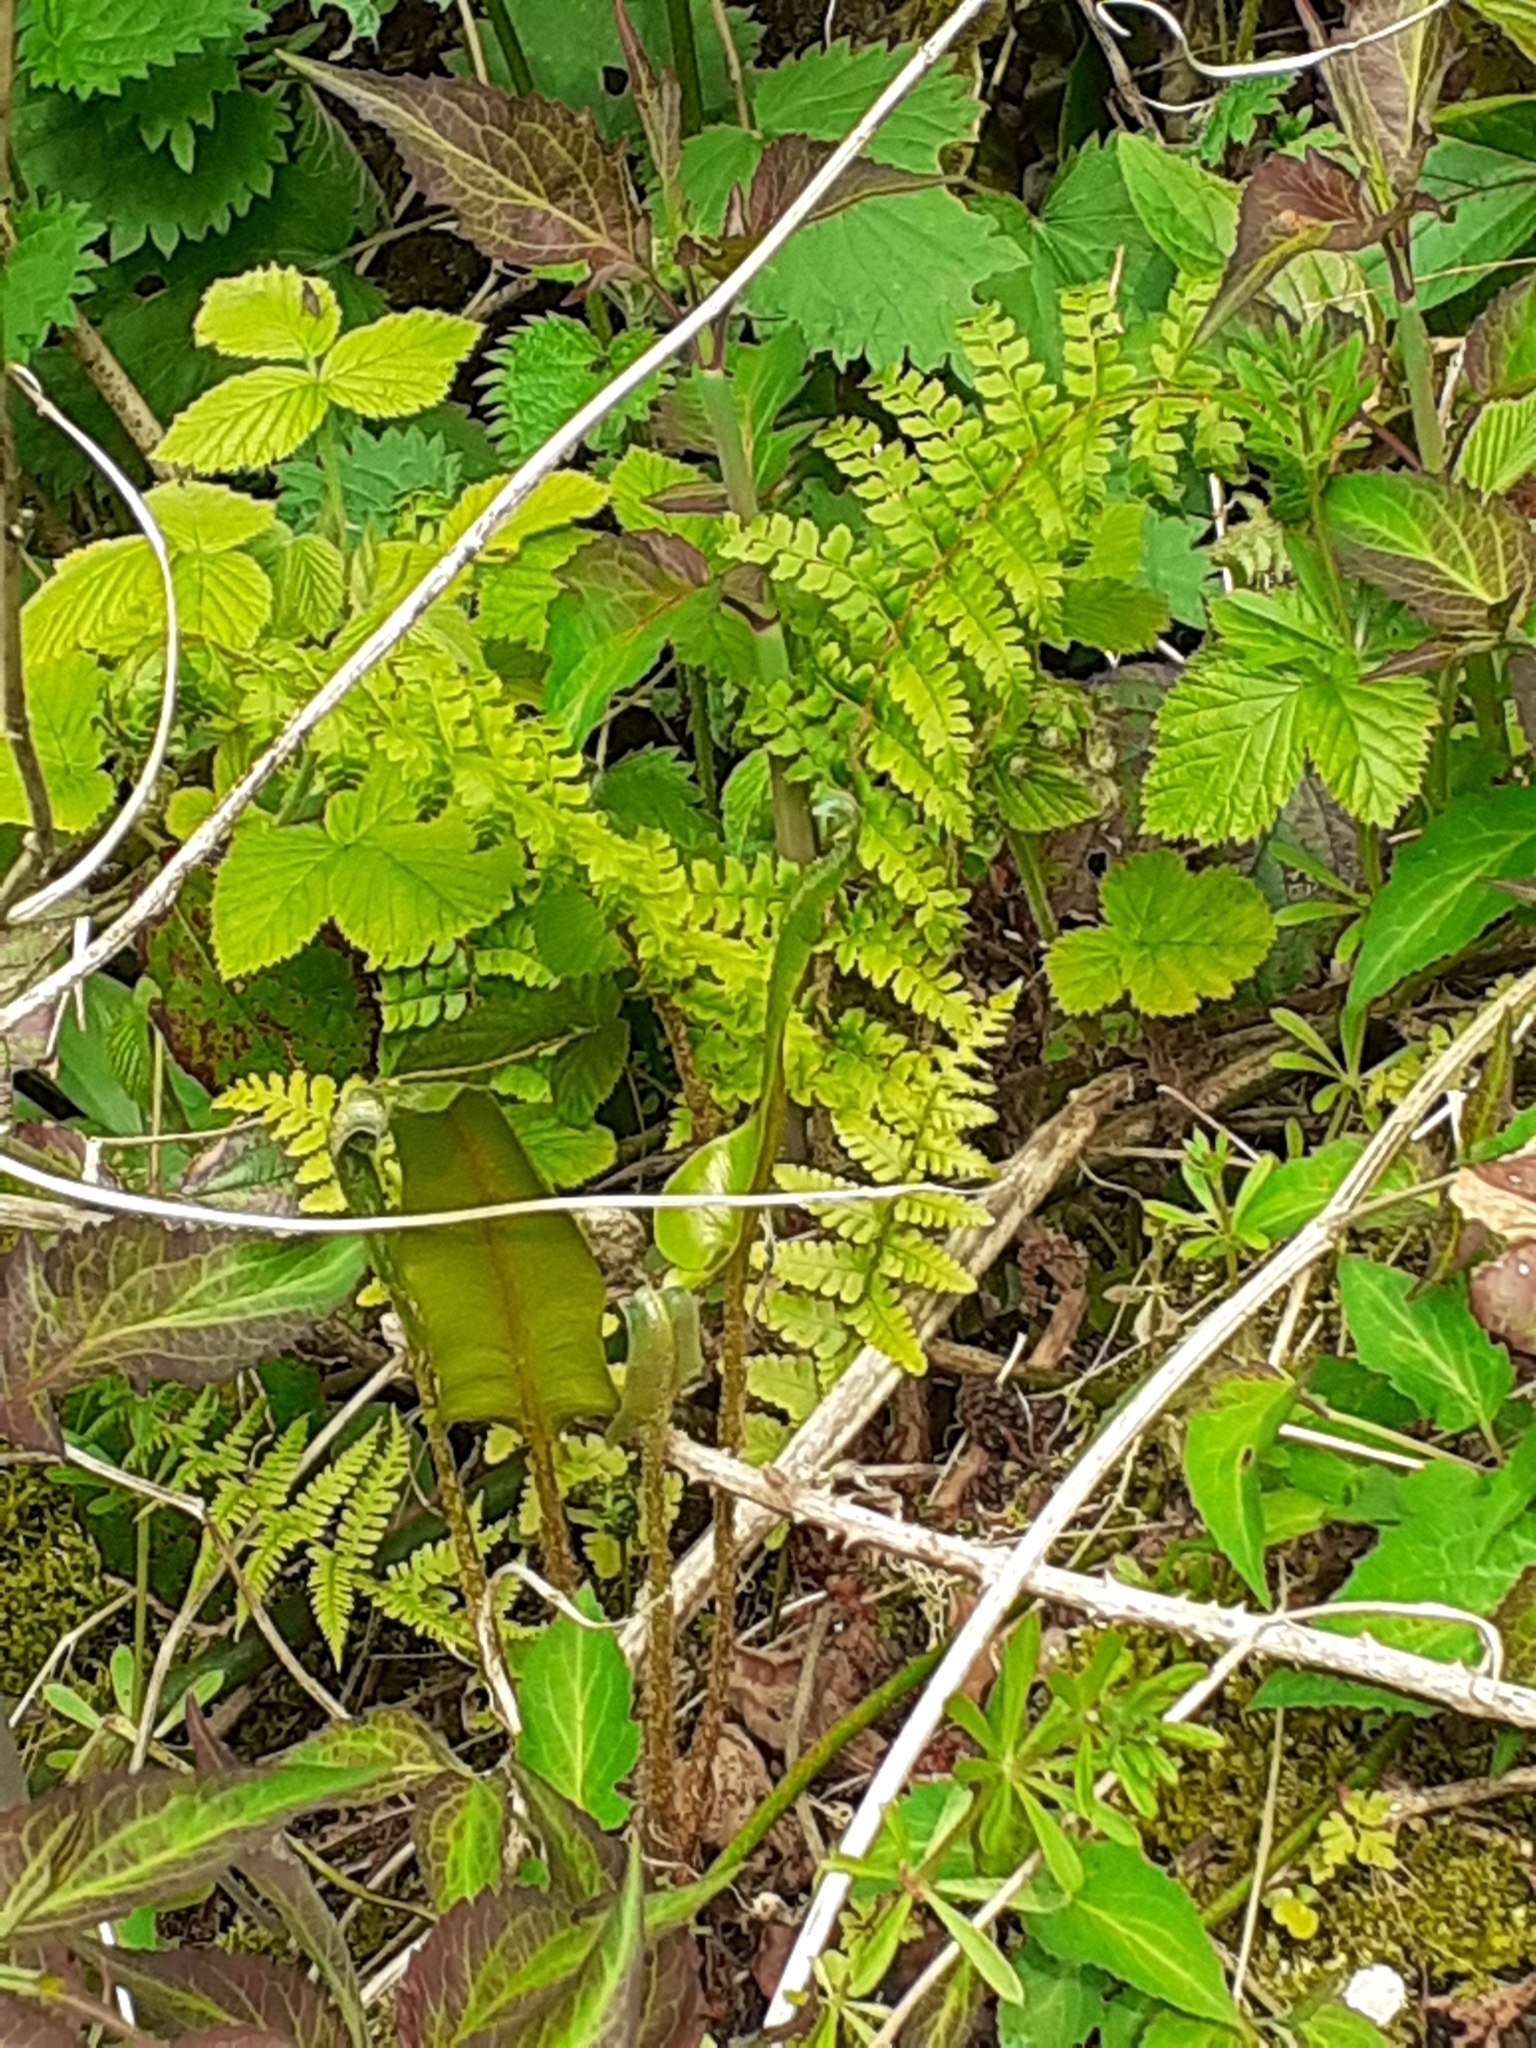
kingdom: Plantae
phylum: Tracheophyta
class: Polypodiopsida
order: Polypodiales
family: Dryopteridaceae
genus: Polystichum
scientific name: Polystichum setiferum
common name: Soft shield-fern
